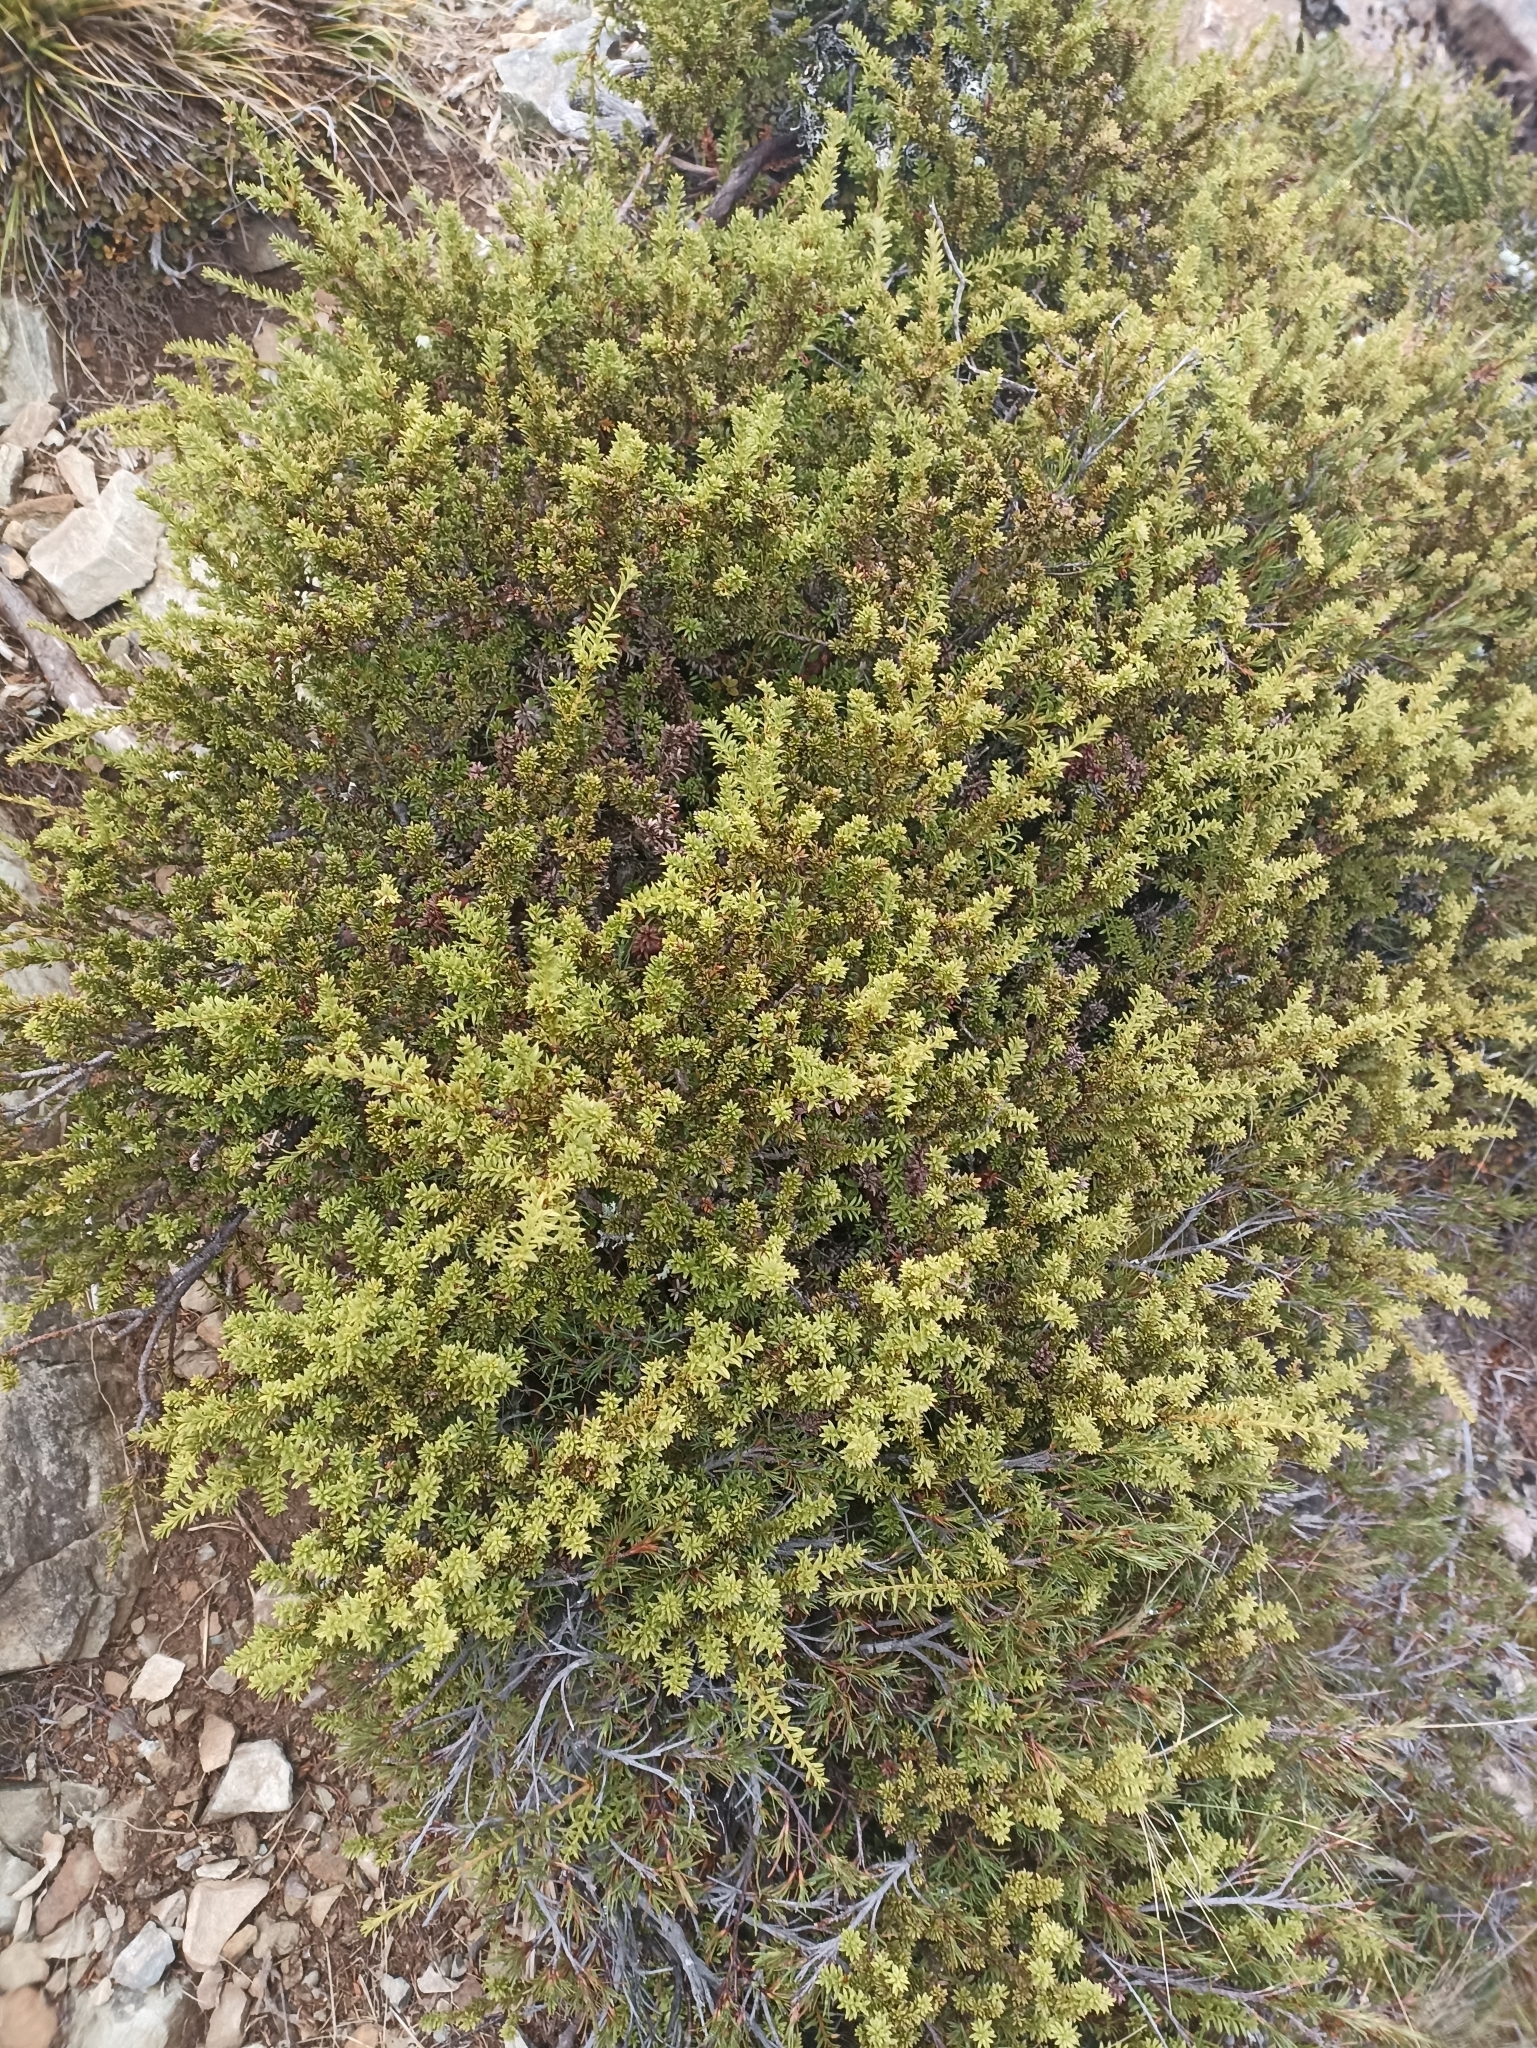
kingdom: Plantae
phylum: Tracheophyta
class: Pinopsida
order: Pinales
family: Podocarpaceae
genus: Podocarpus
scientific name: Podocarpus nivalis
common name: Alpine totara
